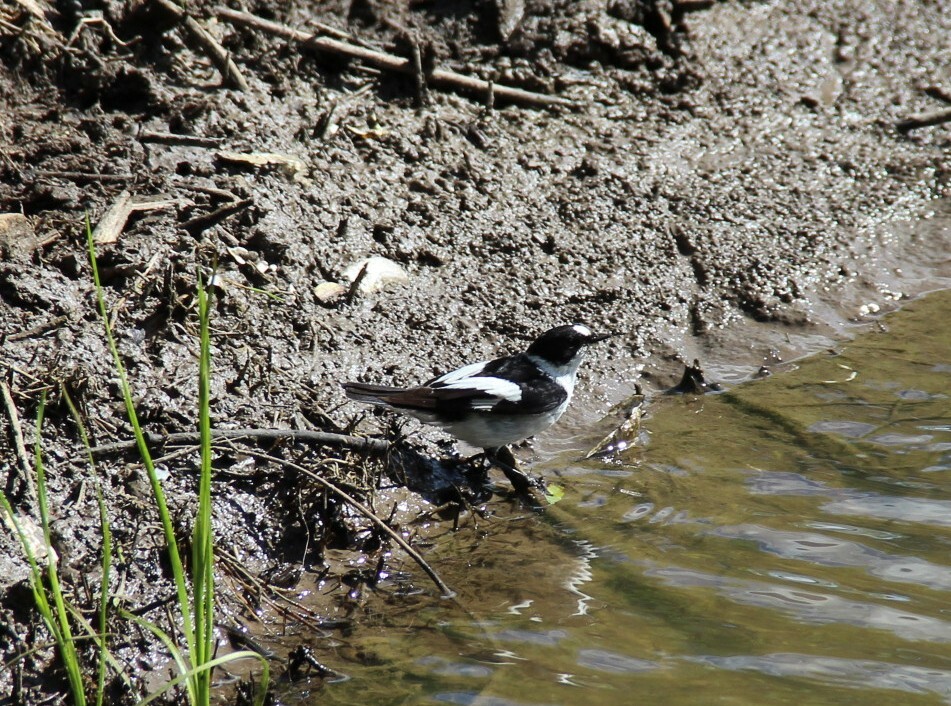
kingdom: Animalia
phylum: Chordata
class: Aves
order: Passeriformes
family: Muscicapidae
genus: Ficedula
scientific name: Ficedula albicollis
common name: Collared flycatcher
